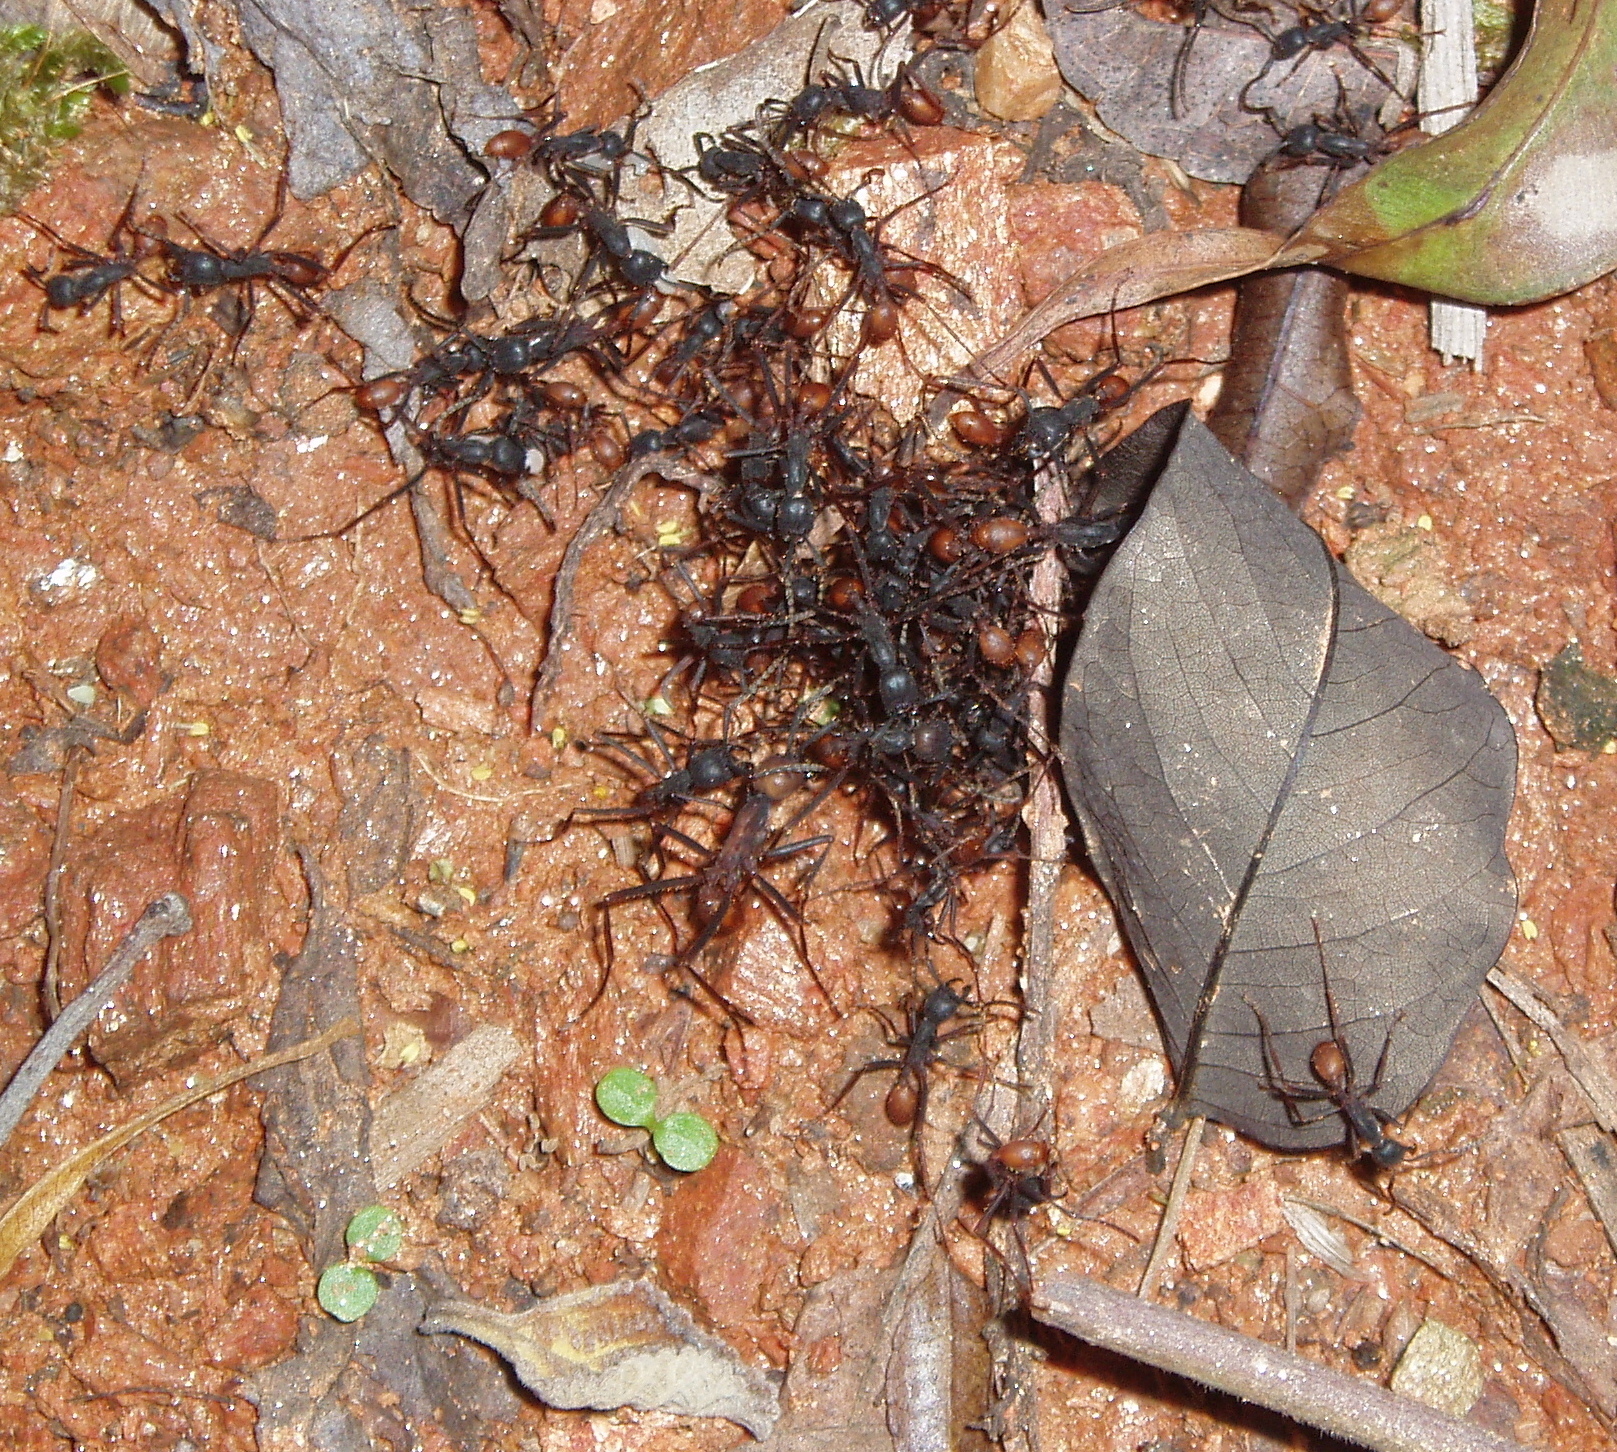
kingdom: Animalia
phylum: Arthropoda
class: Insecta
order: Hymenoptera
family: Formicidae
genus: Eciton
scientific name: Eciton burchellii
